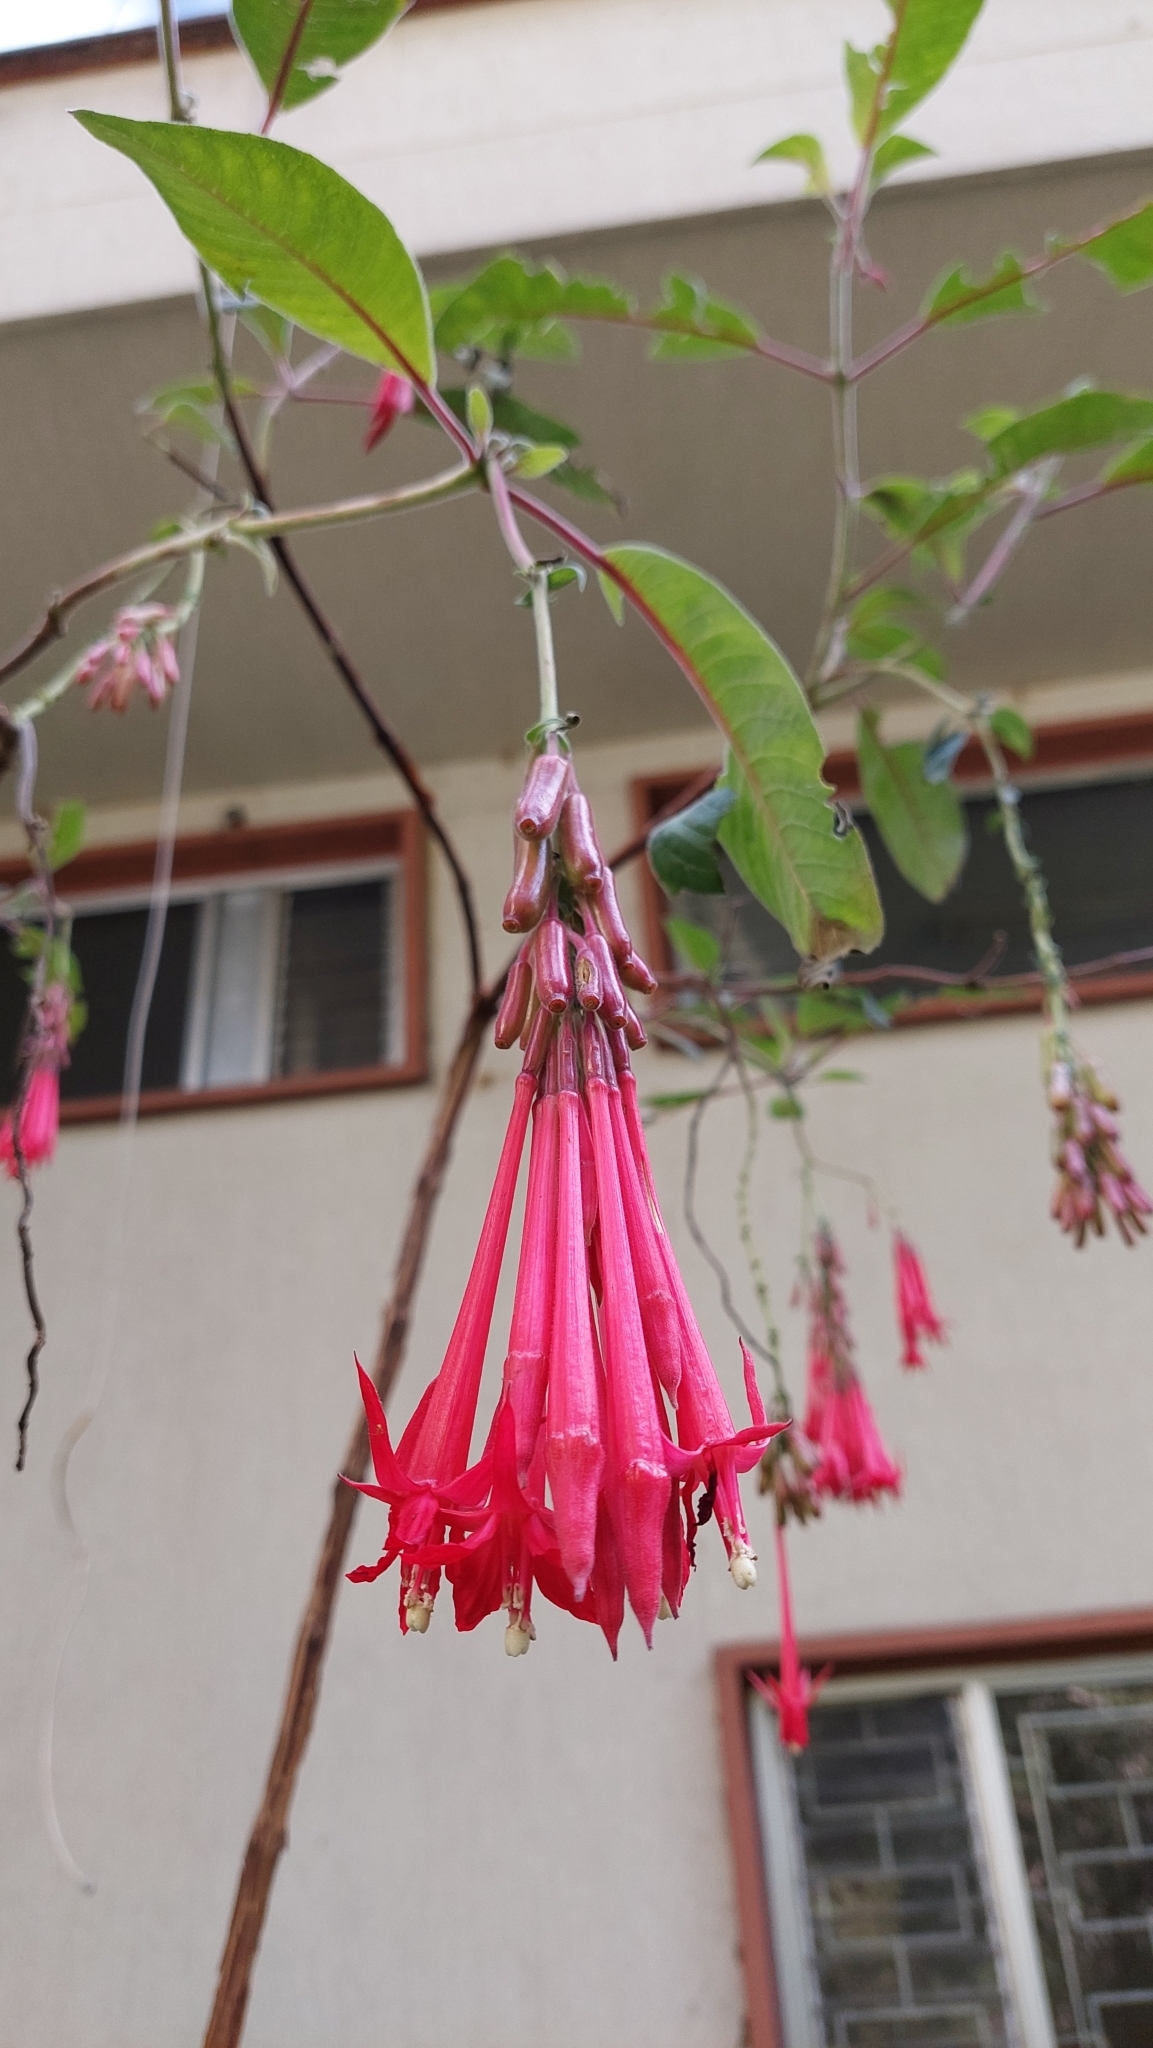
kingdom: Plantae
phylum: Tracheophyta
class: Magnoliopsida
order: Myrtales
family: Onagraceae
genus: Fuchsia
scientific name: Fuchsia boliviana
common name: Bolivian fuchsia
